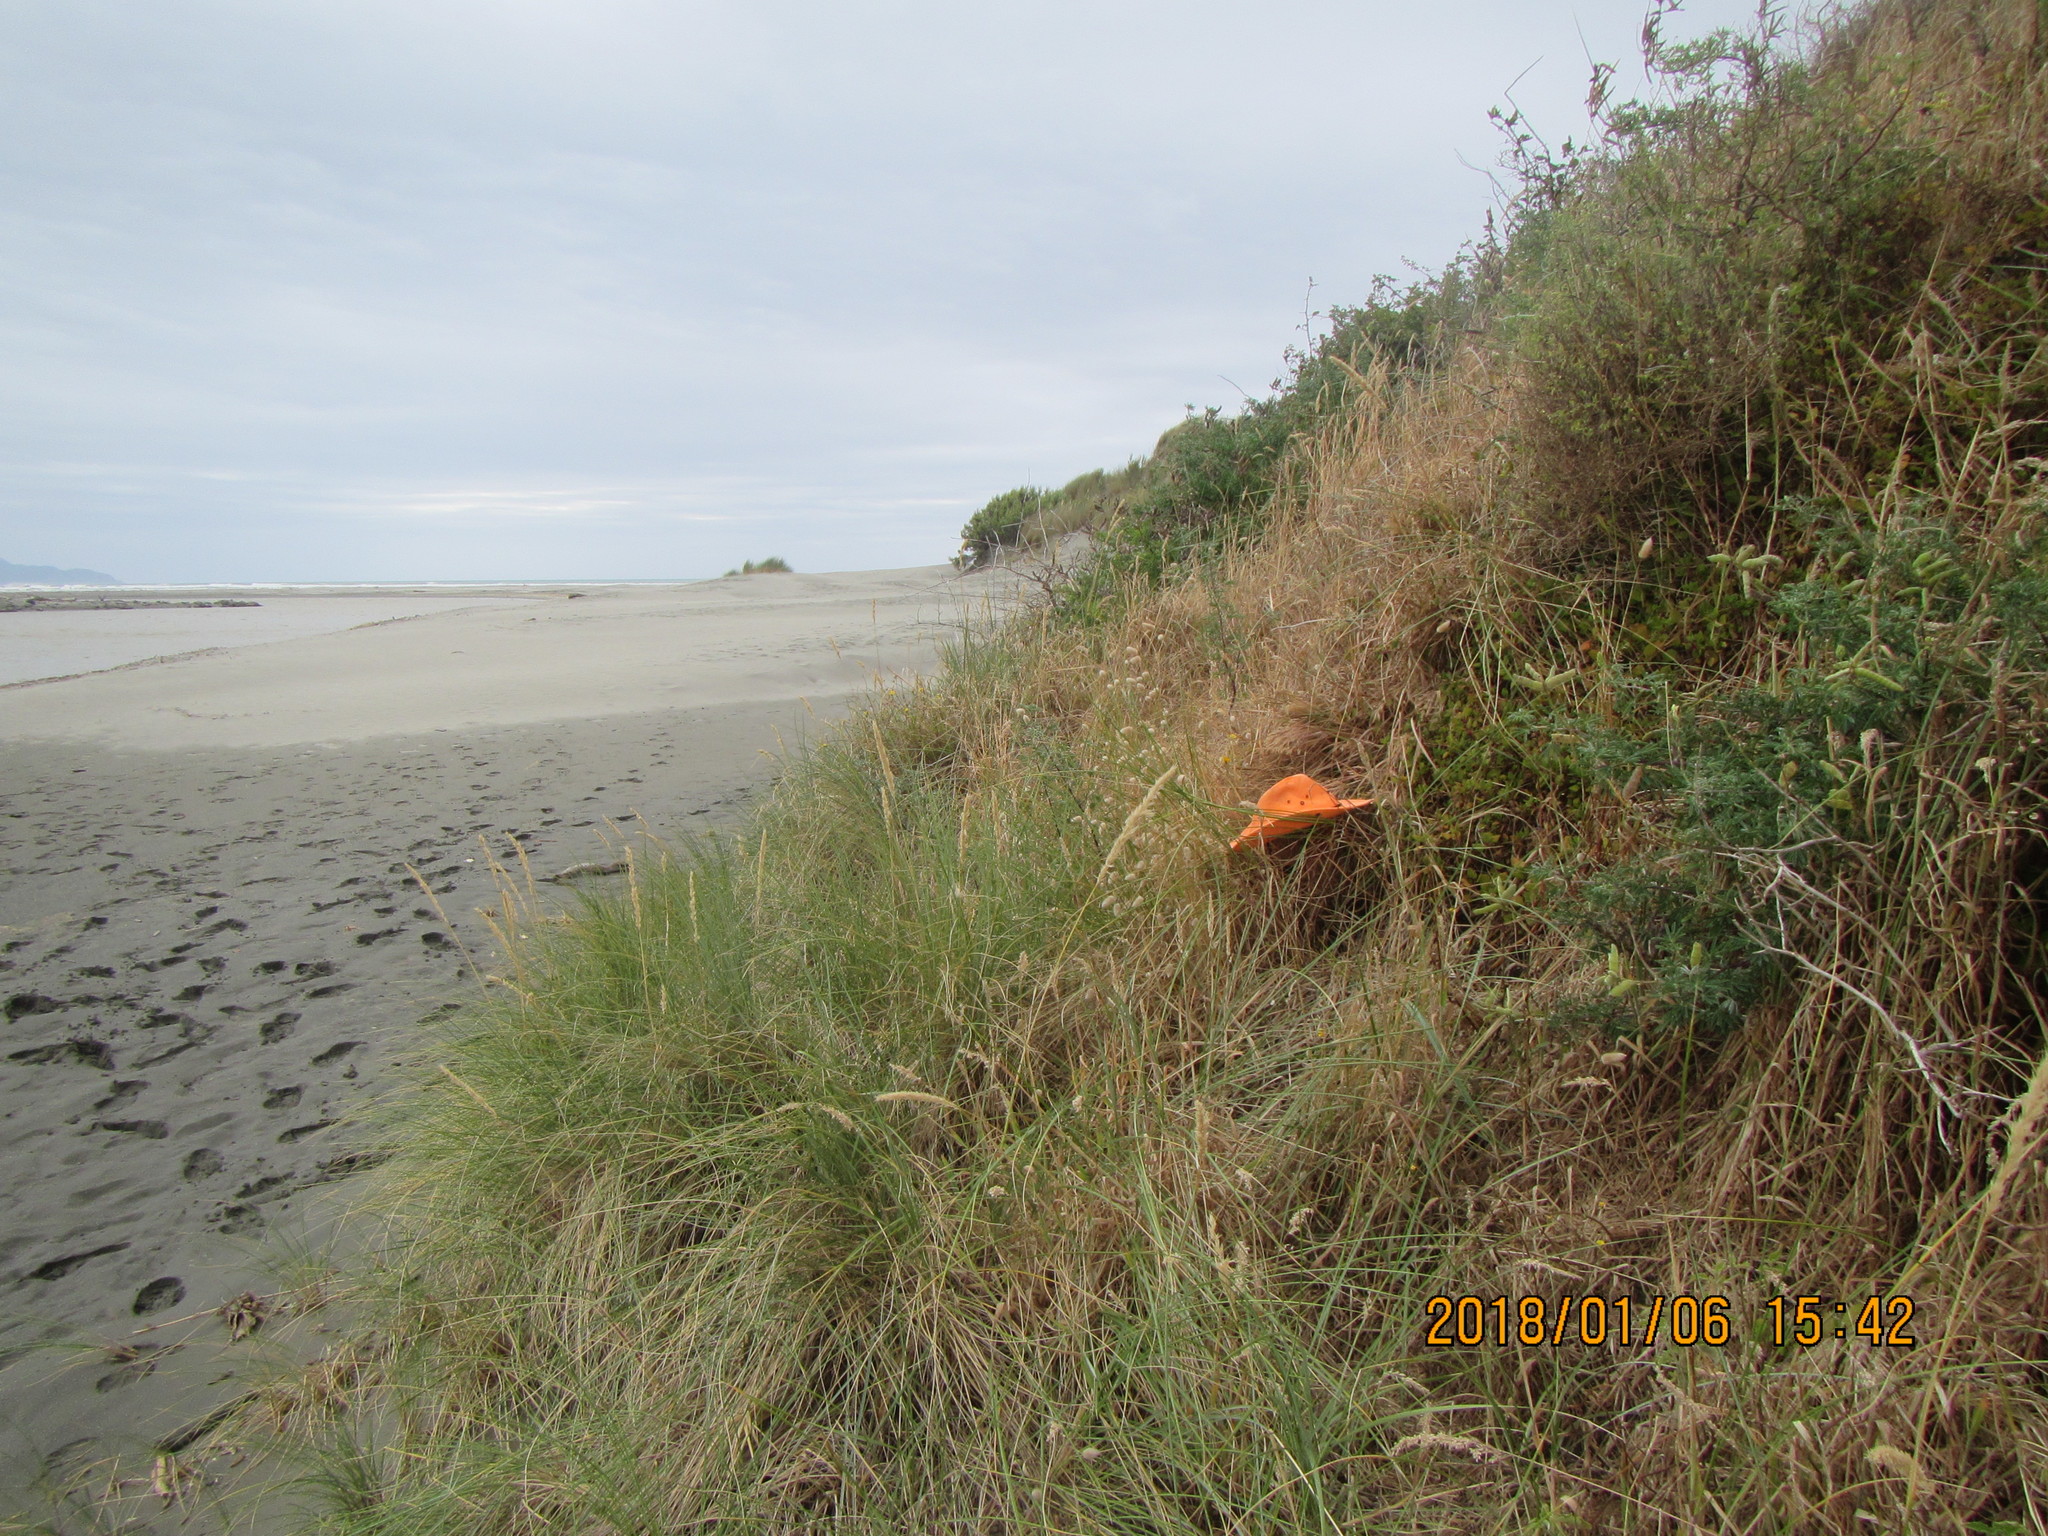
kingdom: Plantae
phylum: Tracheophyta
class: Magnoliopsida
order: Caryophyllales
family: Aizoaceae
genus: Tetragonia
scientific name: Tetragonia implexicoma
